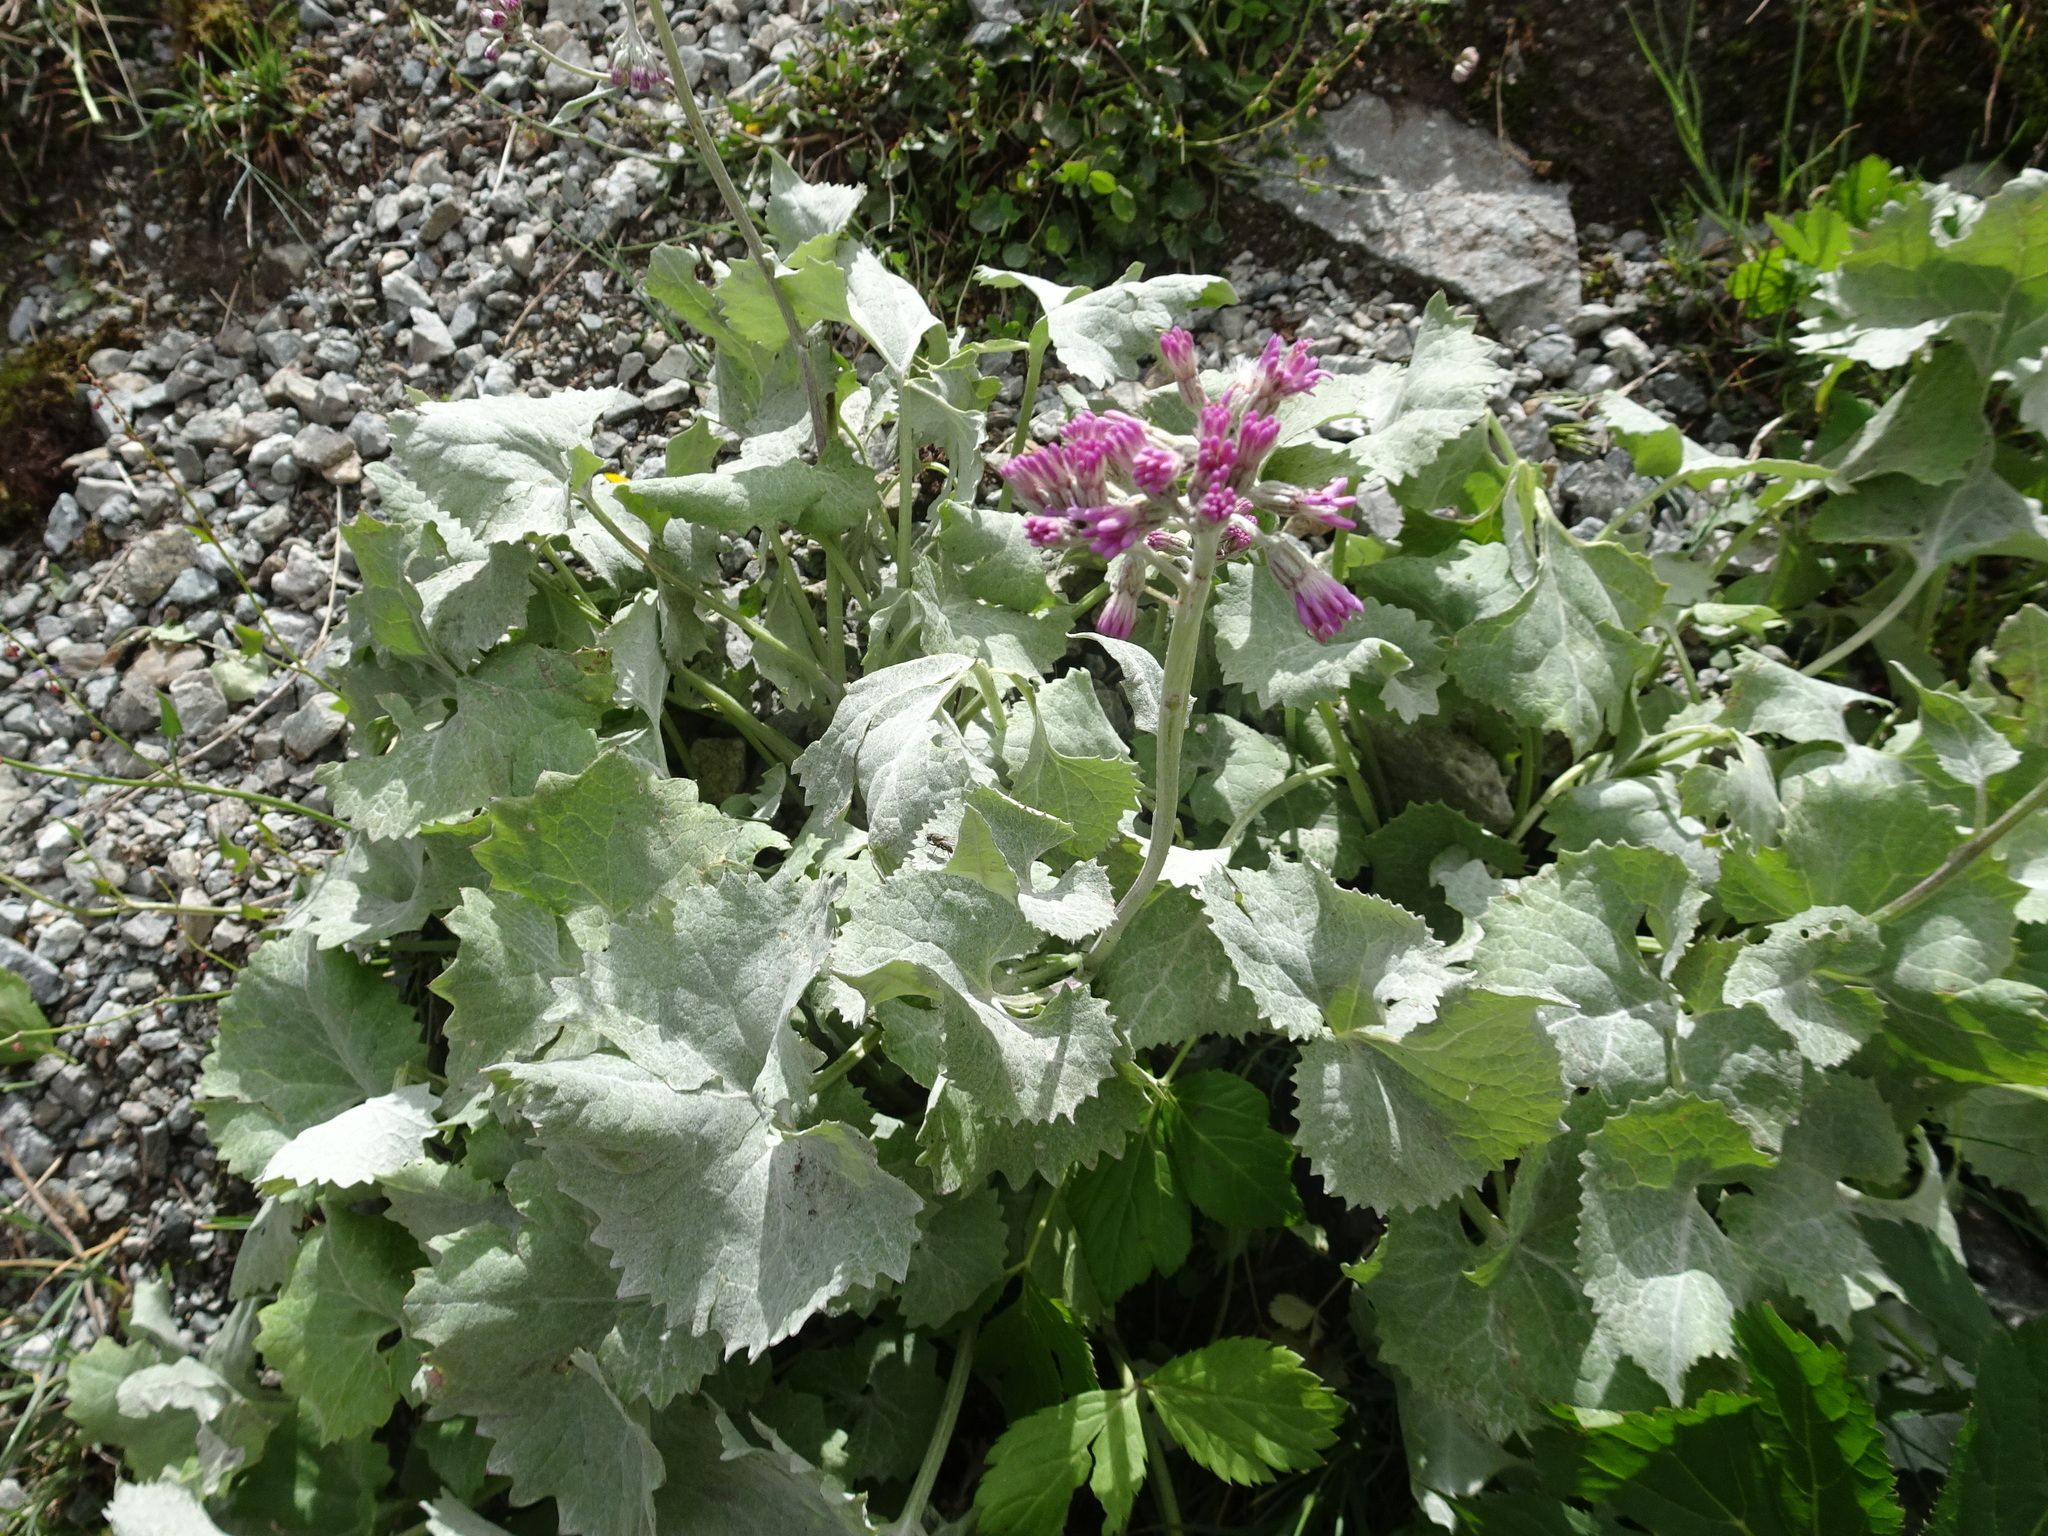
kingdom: Plantae
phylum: Tracheophyta
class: Magnoliopsida
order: Asterales
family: Asteraceae
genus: Adenostyles
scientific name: Adenostyles alliariae
